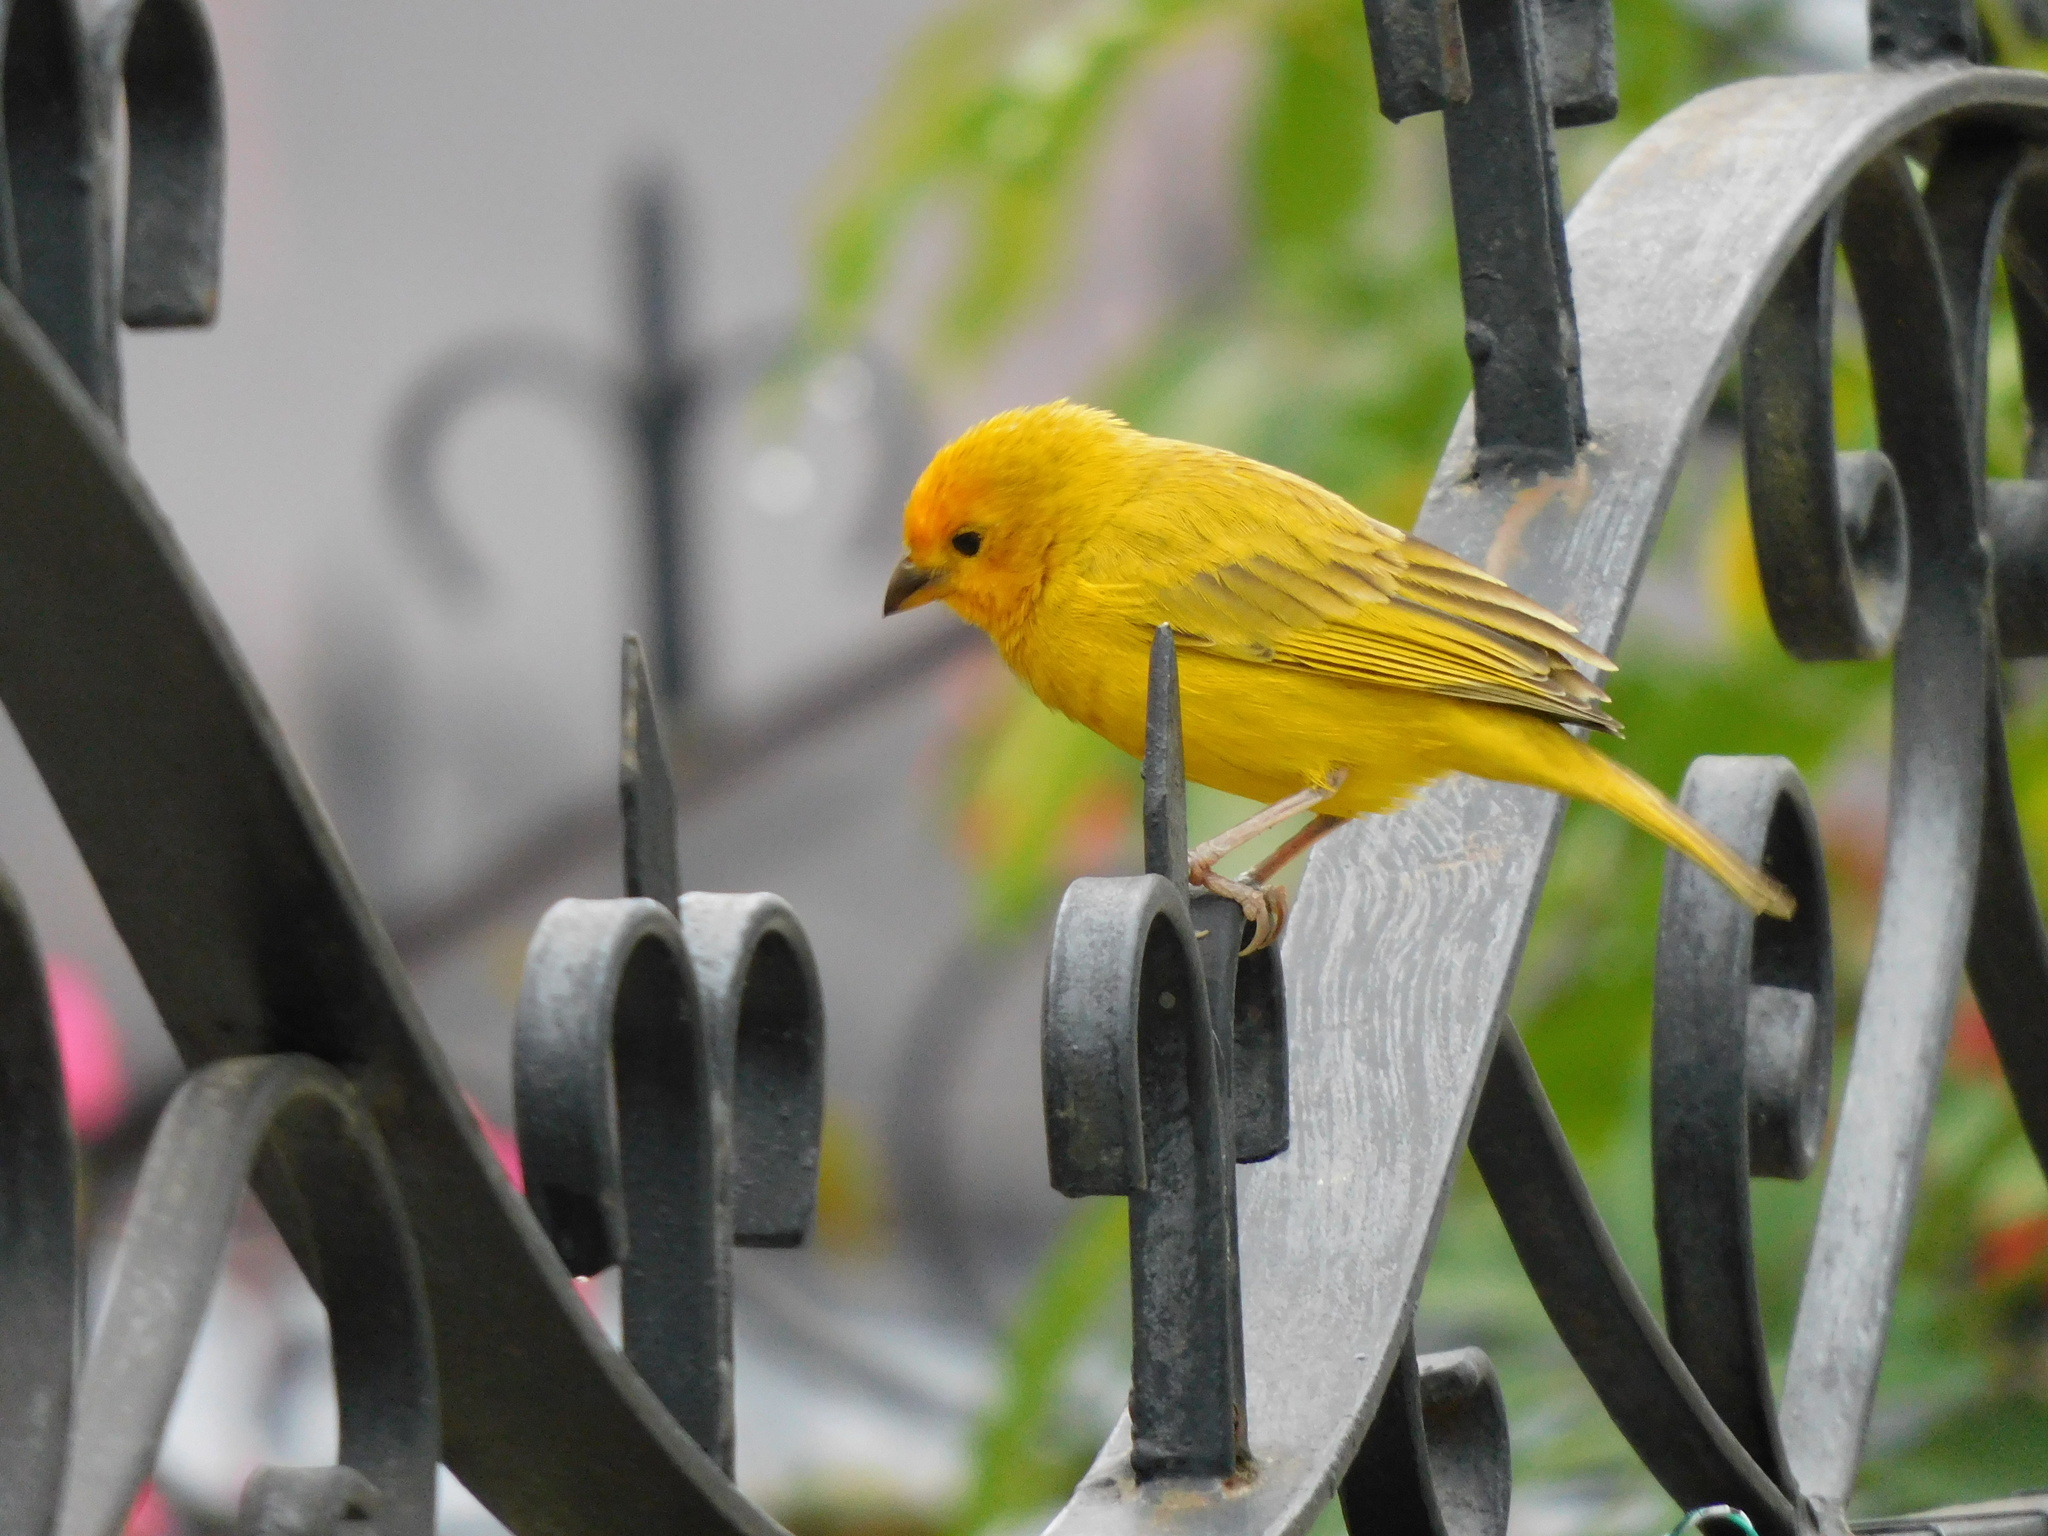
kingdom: Animalia
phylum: Chordata
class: Aves
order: Passeriformes
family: Thraupidae
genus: Sicalis
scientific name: Sicalis flaveola
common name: Saffron finch
